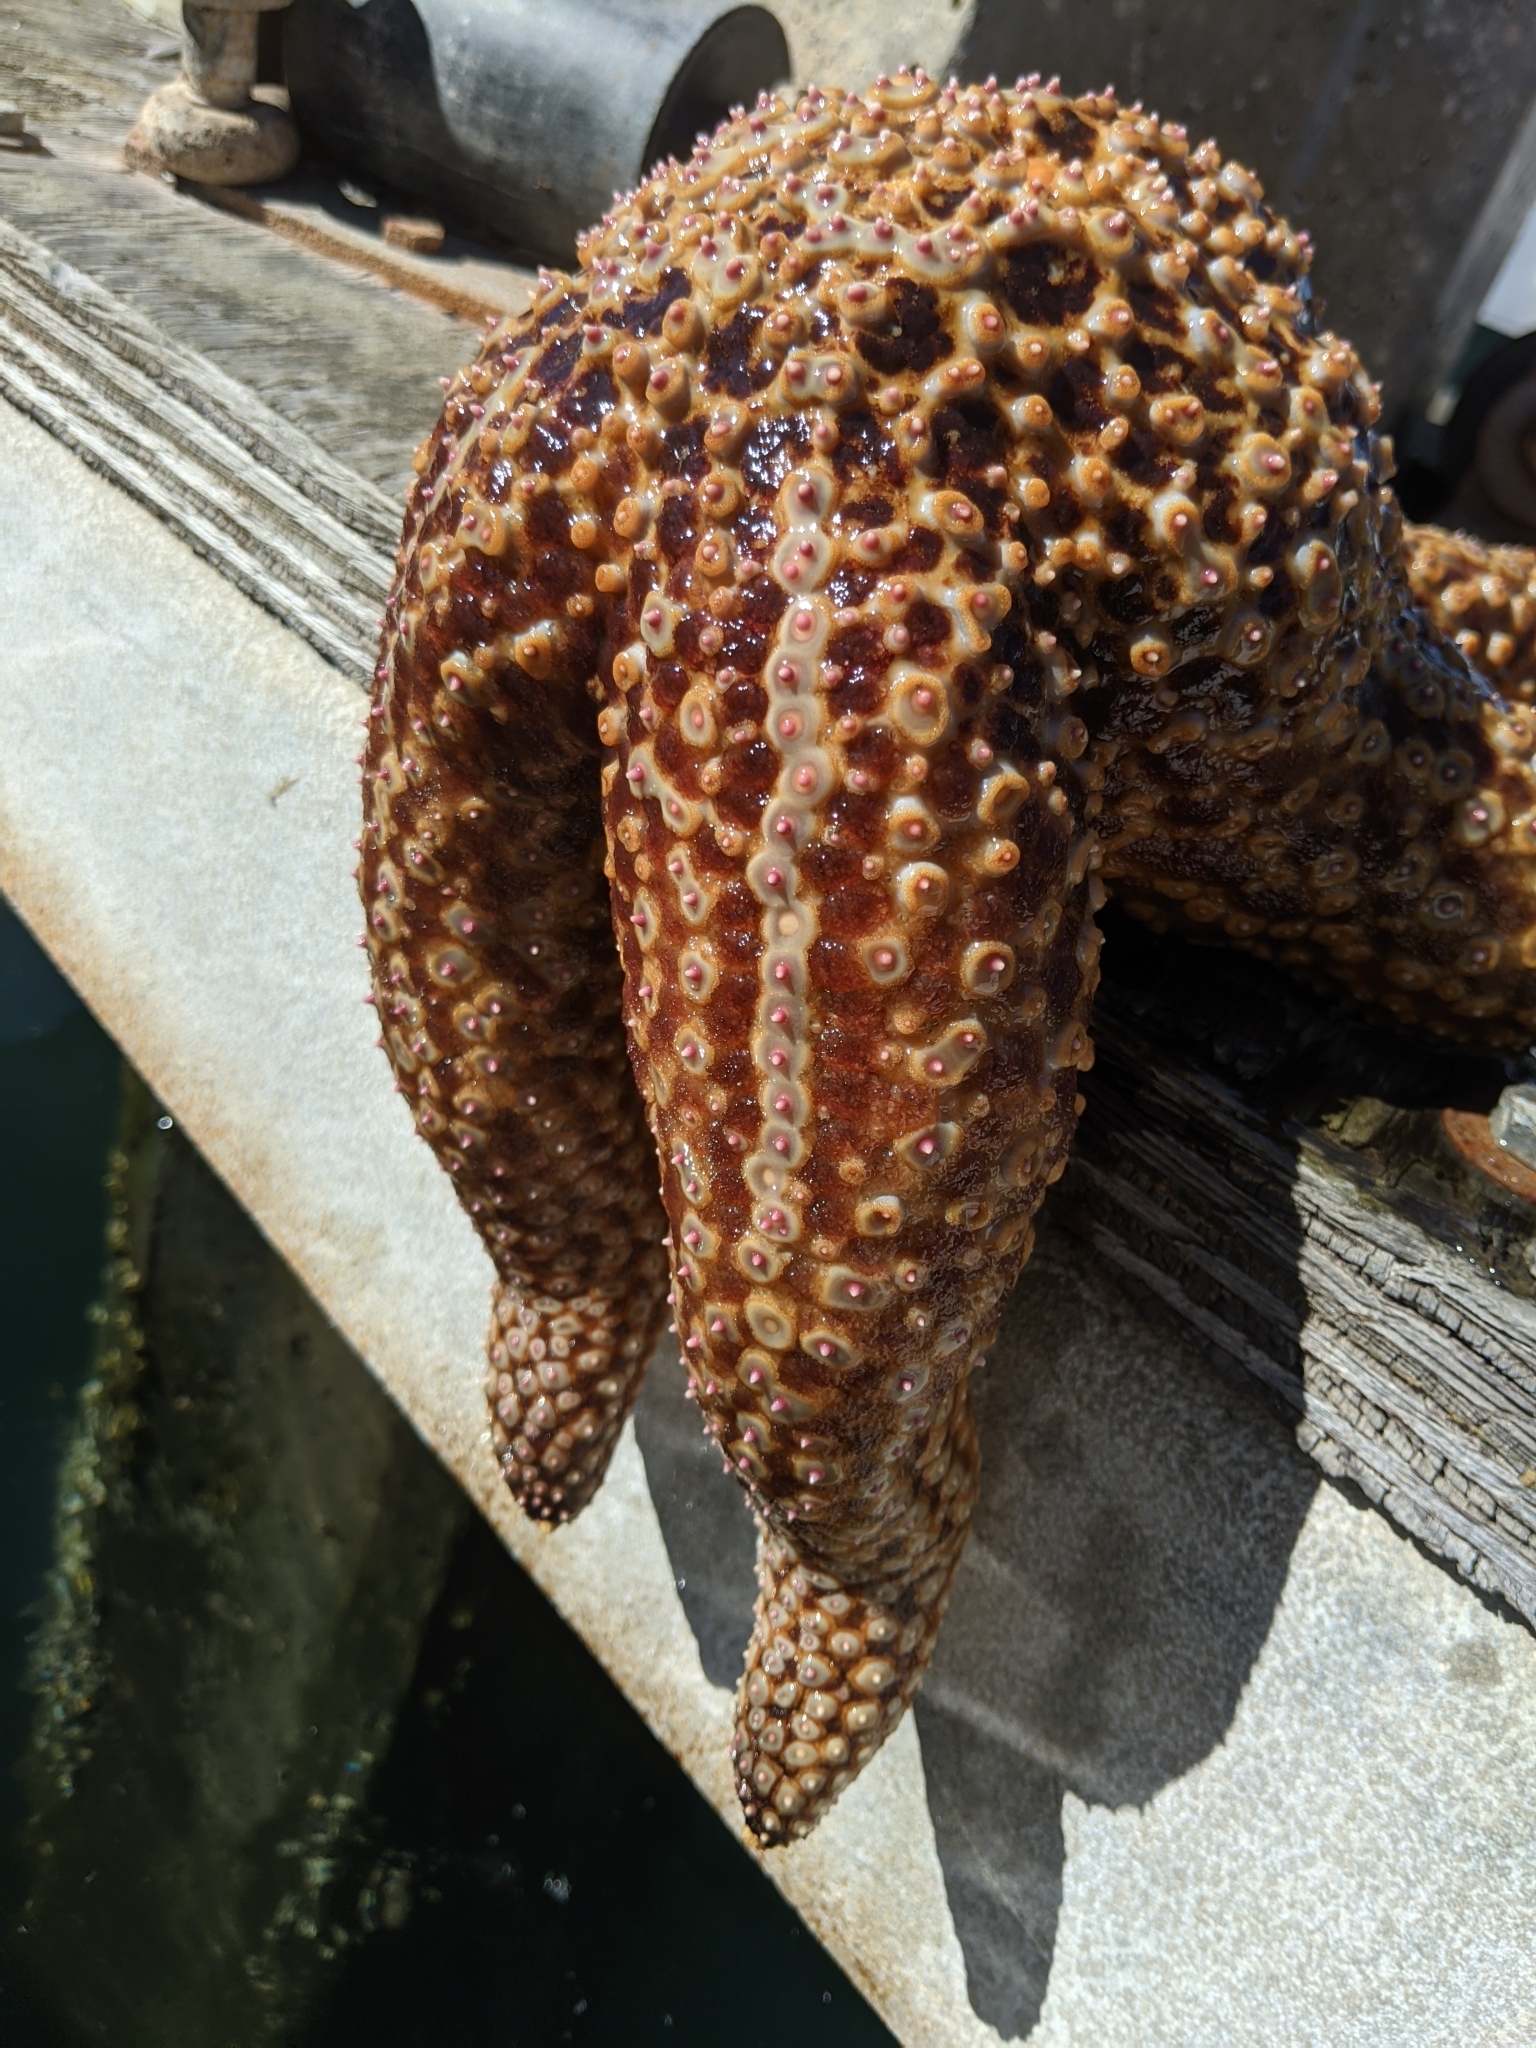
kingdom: Animalia
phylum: Echinodermata
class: Asteroidea
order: Forcipulatida
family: Asteriidae
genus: Pisaster
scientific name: Pisaster giganteus
